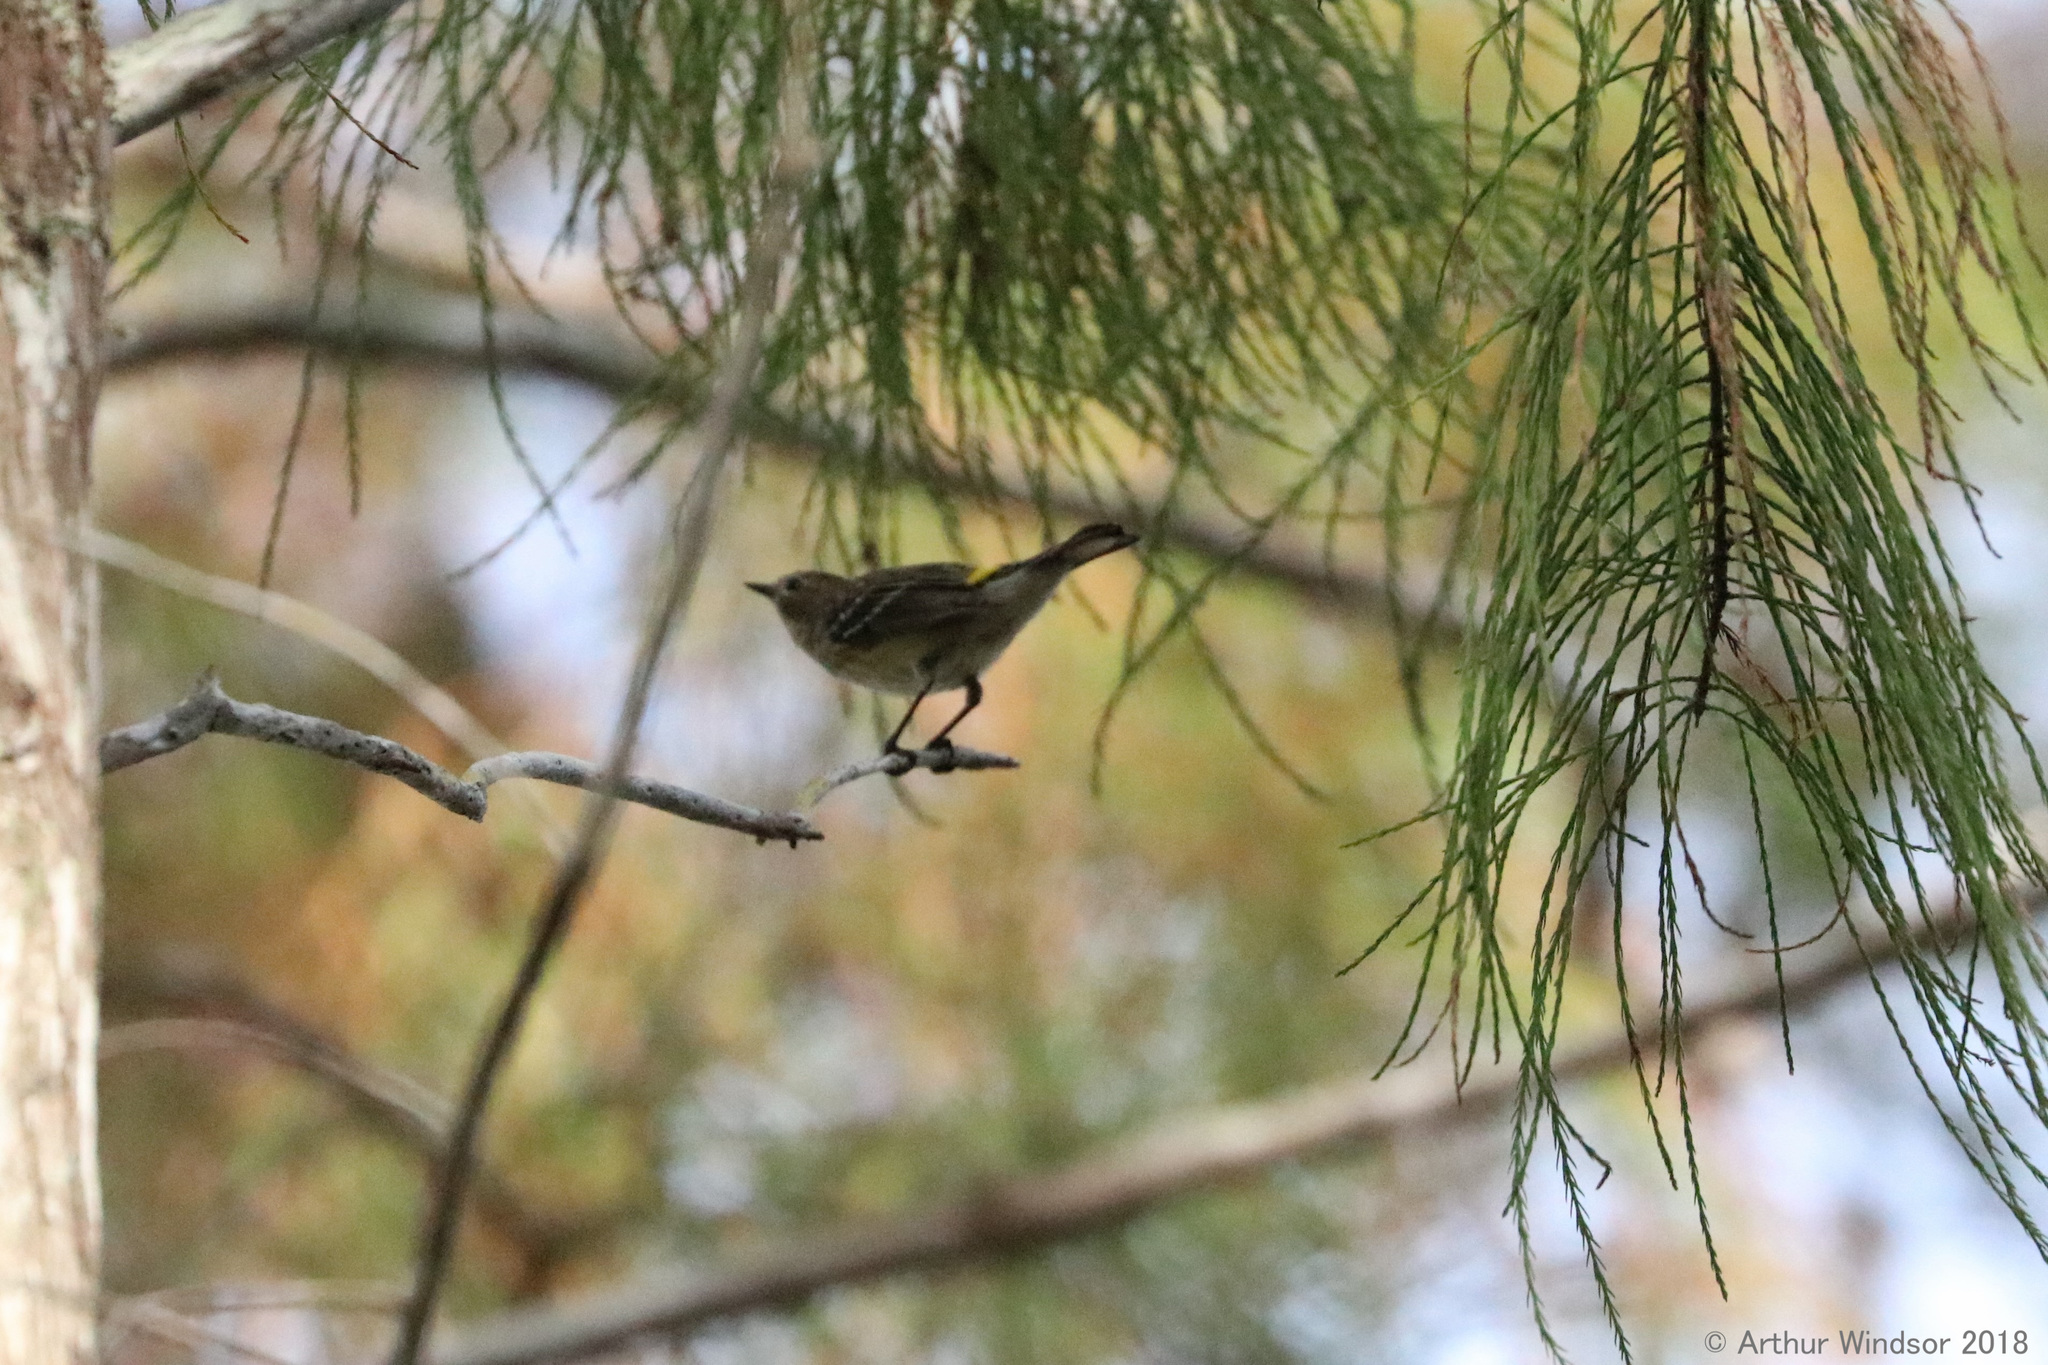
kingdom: Animalia
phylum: Chordata
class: Aves
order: Passeriformes
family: Parulidae
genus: Setophaga
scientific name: Setophaga pinus
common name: Pine warbler
